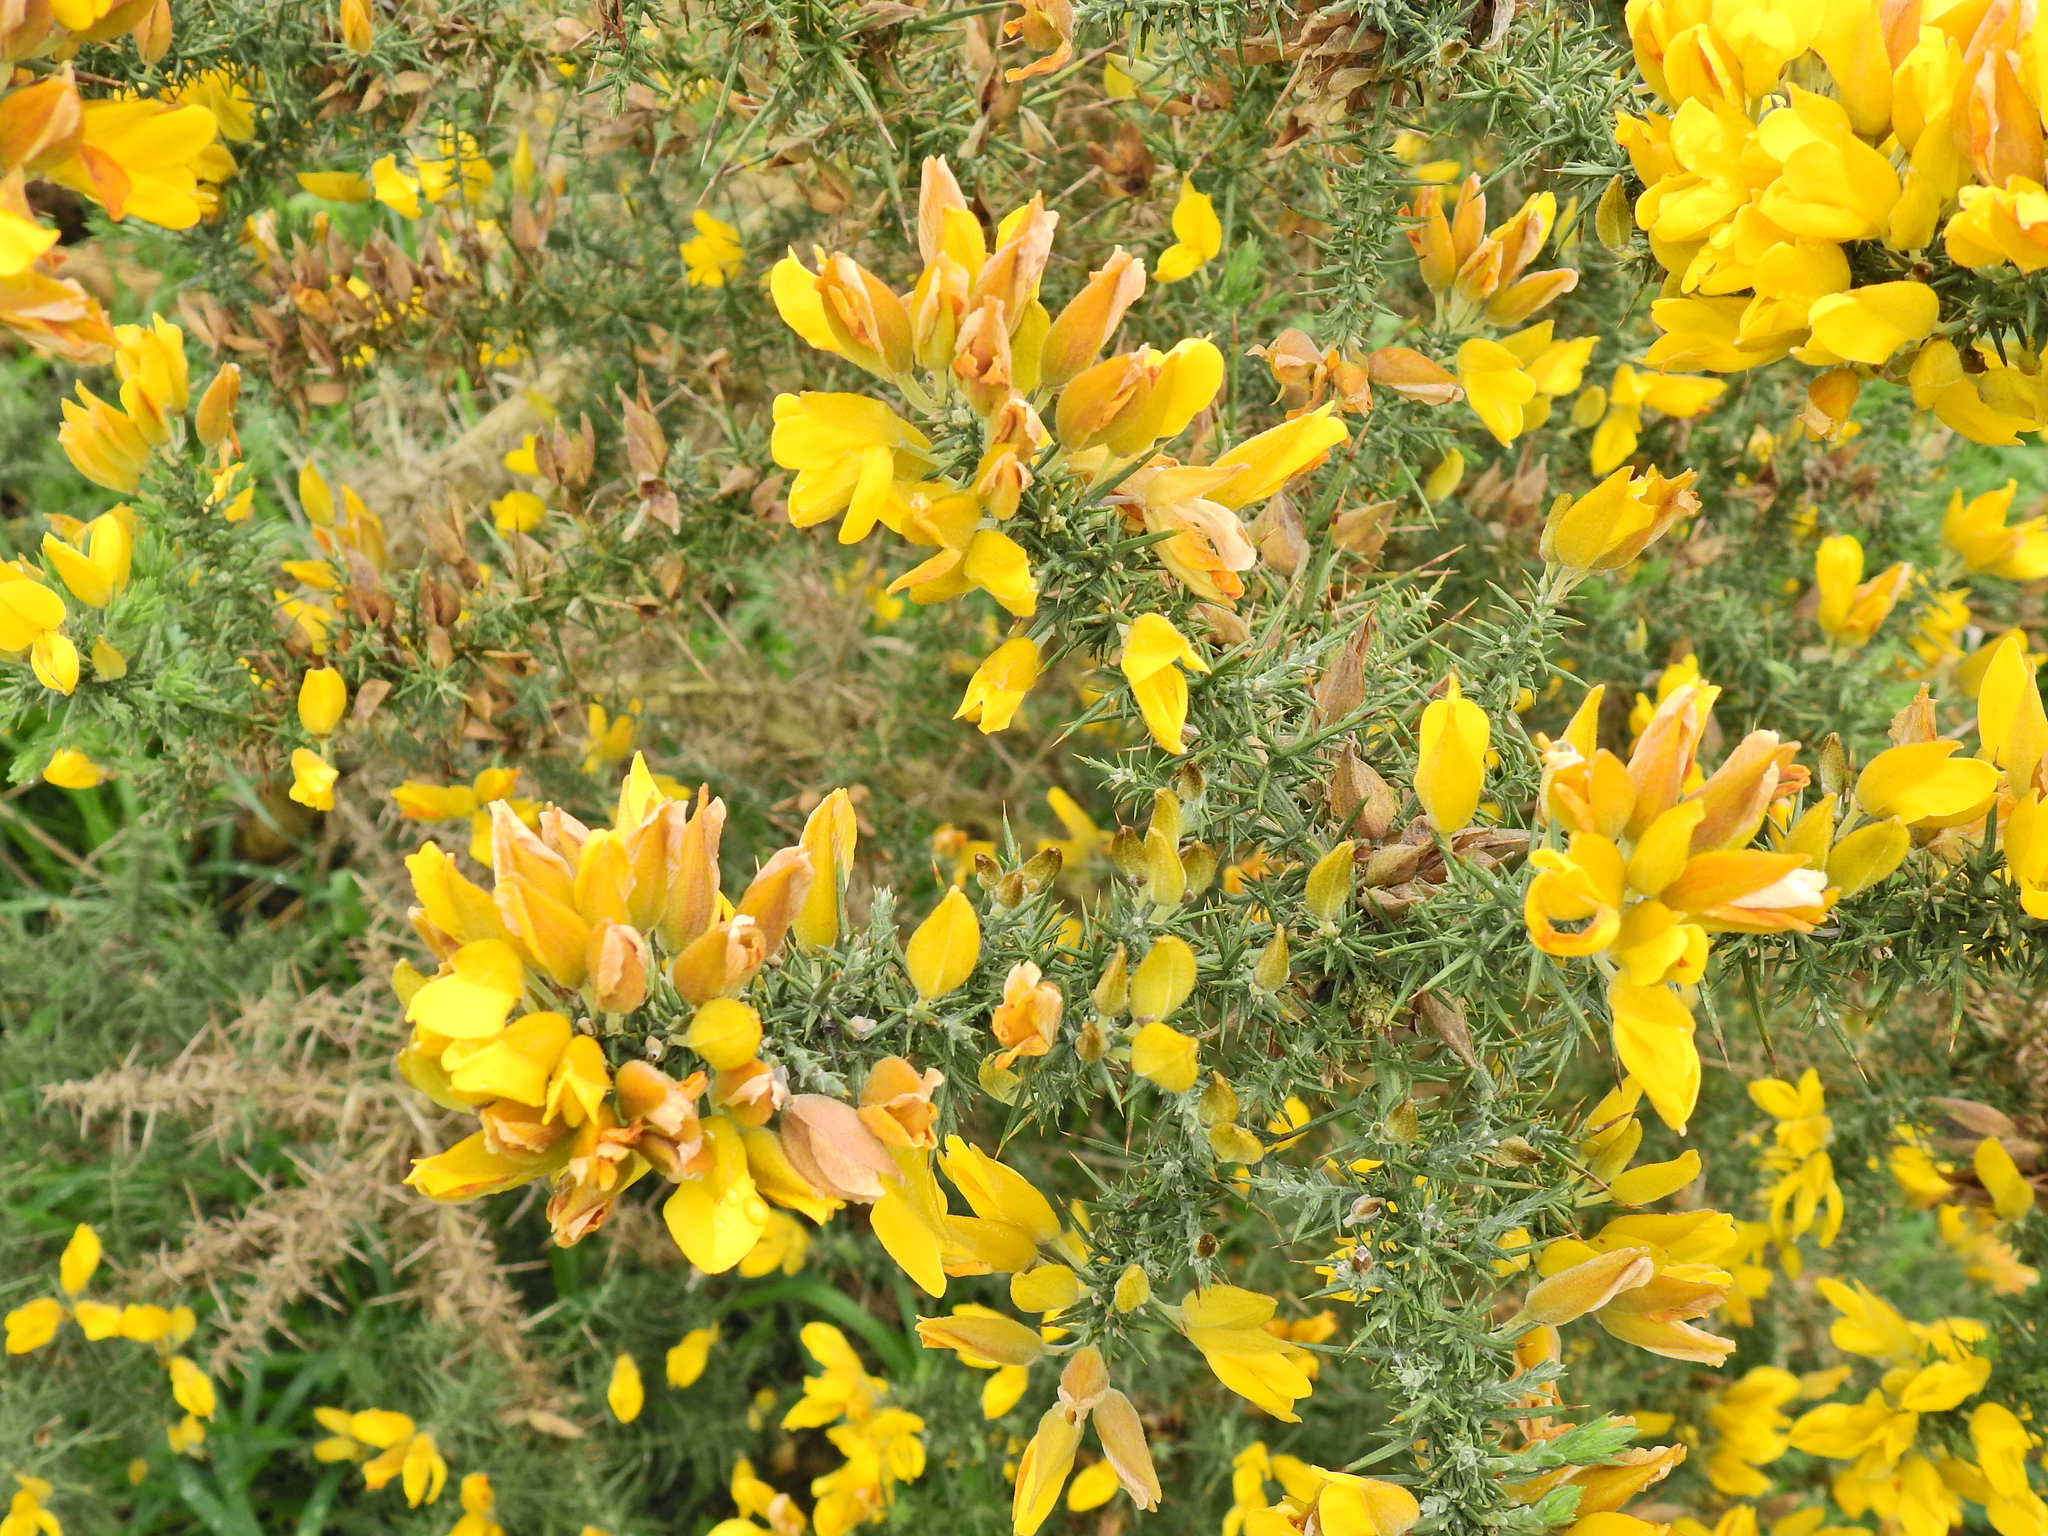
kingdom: Plantae
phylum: Tracheophyta
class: Magnoliopsida
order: Fabales
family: Fabaceae
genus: Ulex
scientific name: Ulex europaeus
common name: Common gorse
